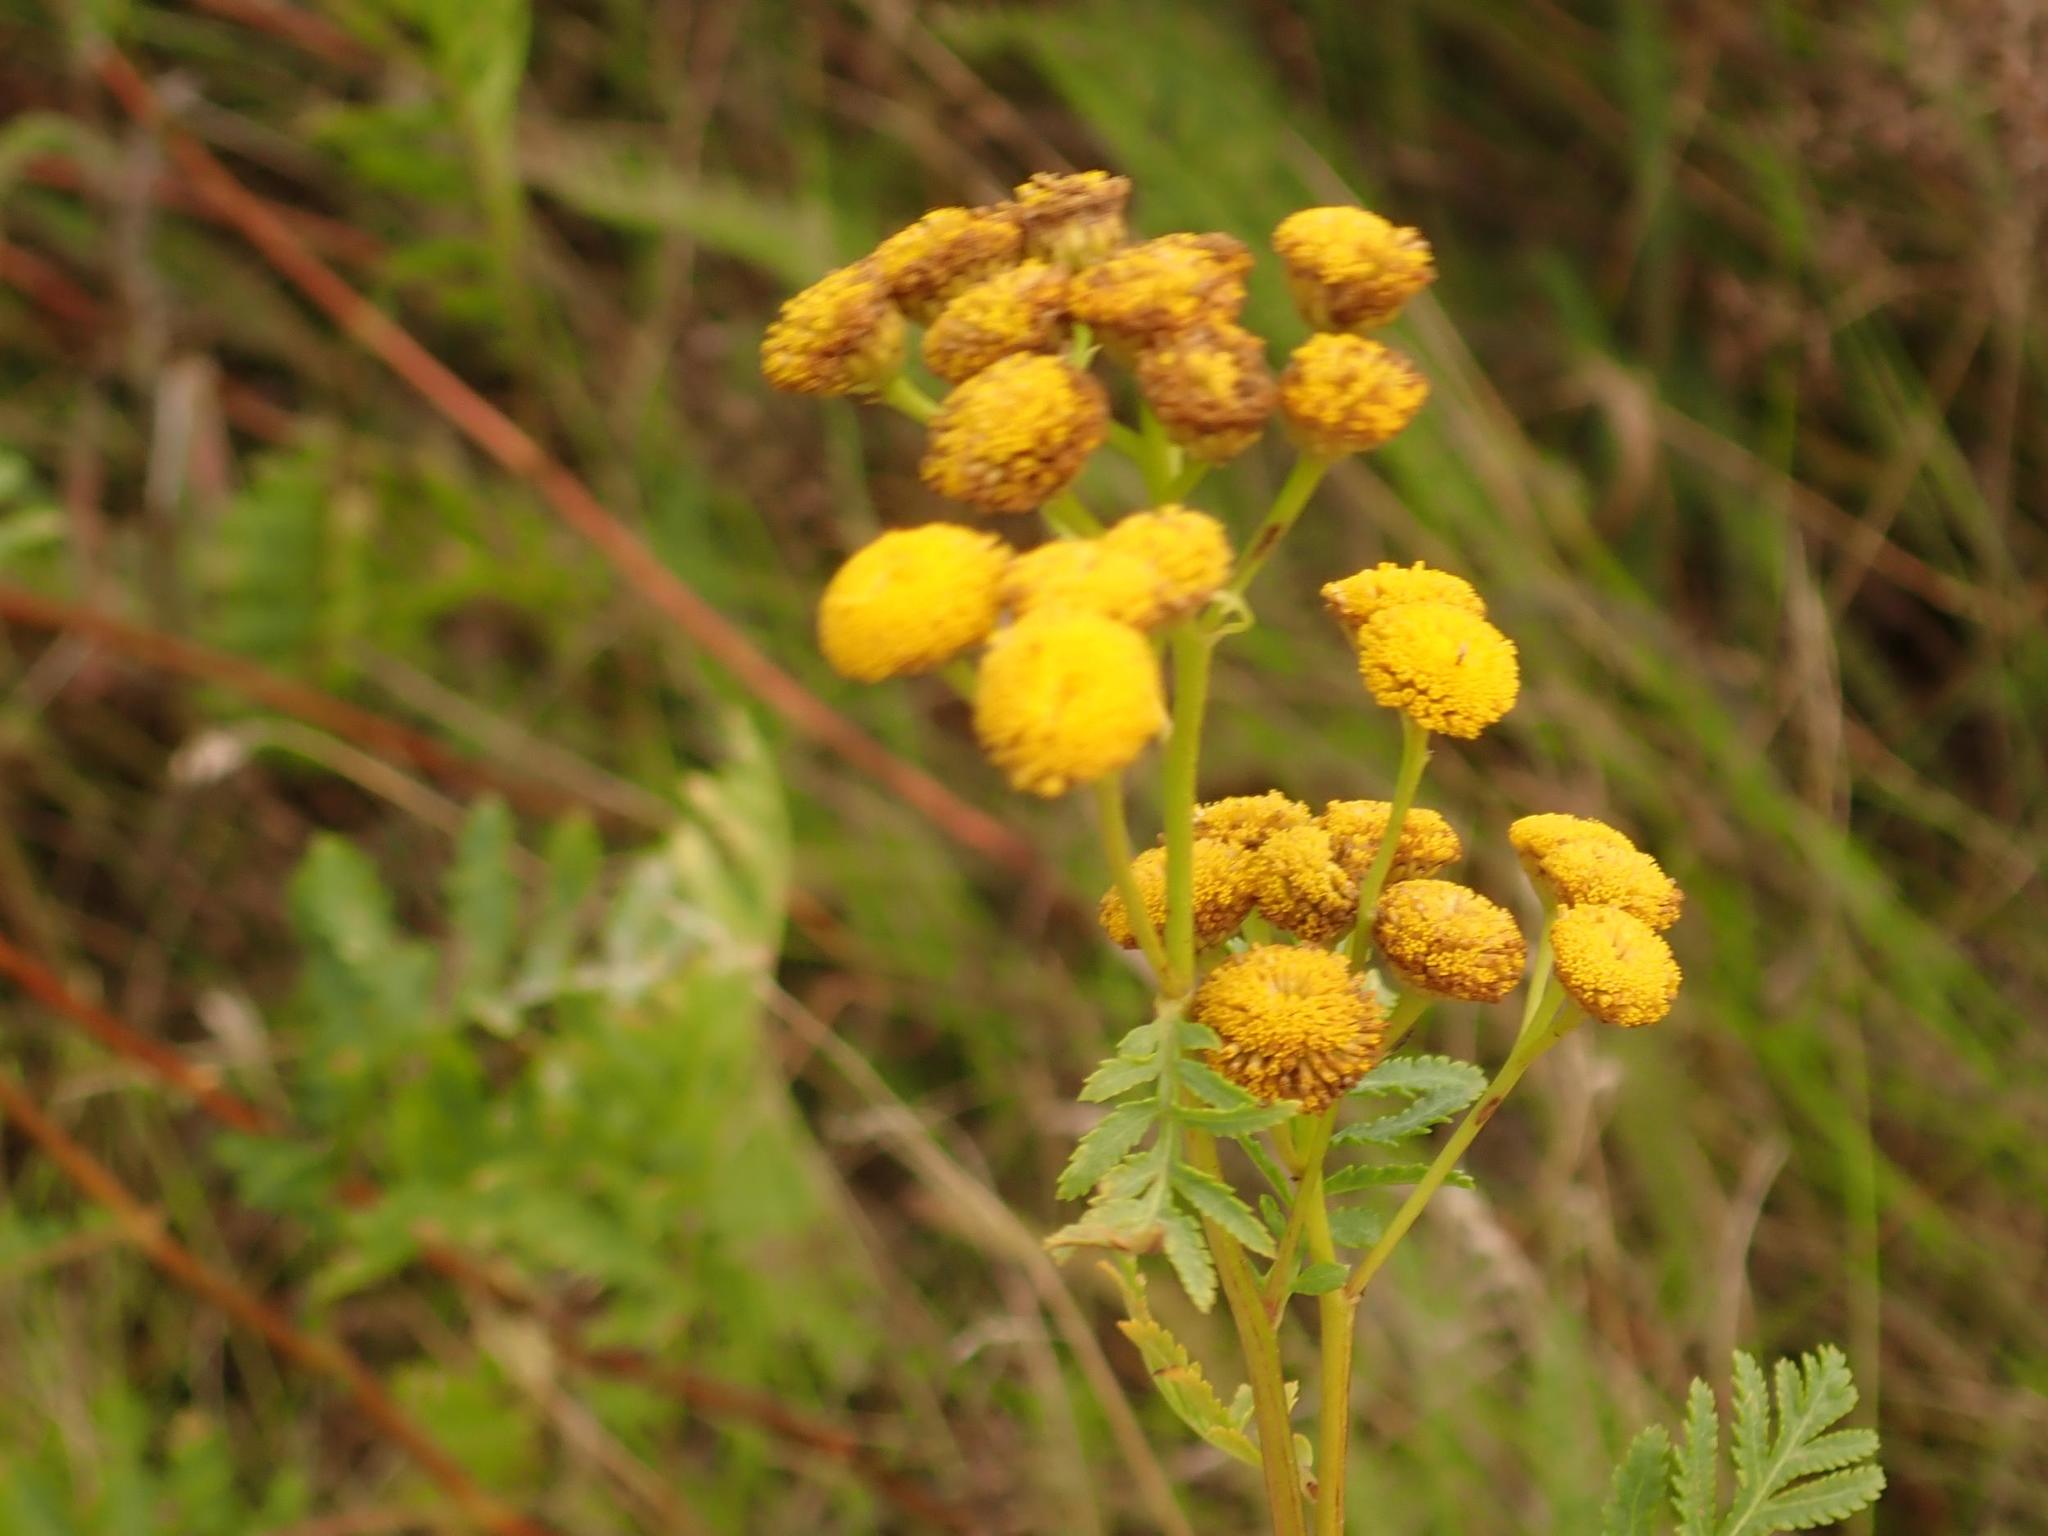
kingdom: Plantae
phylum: Tracheophyta
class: Magnoliopsida
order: Asterales
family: Asteraceae
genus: Tanacetum
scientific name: Tanacetum vulgare
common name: Common tansy
